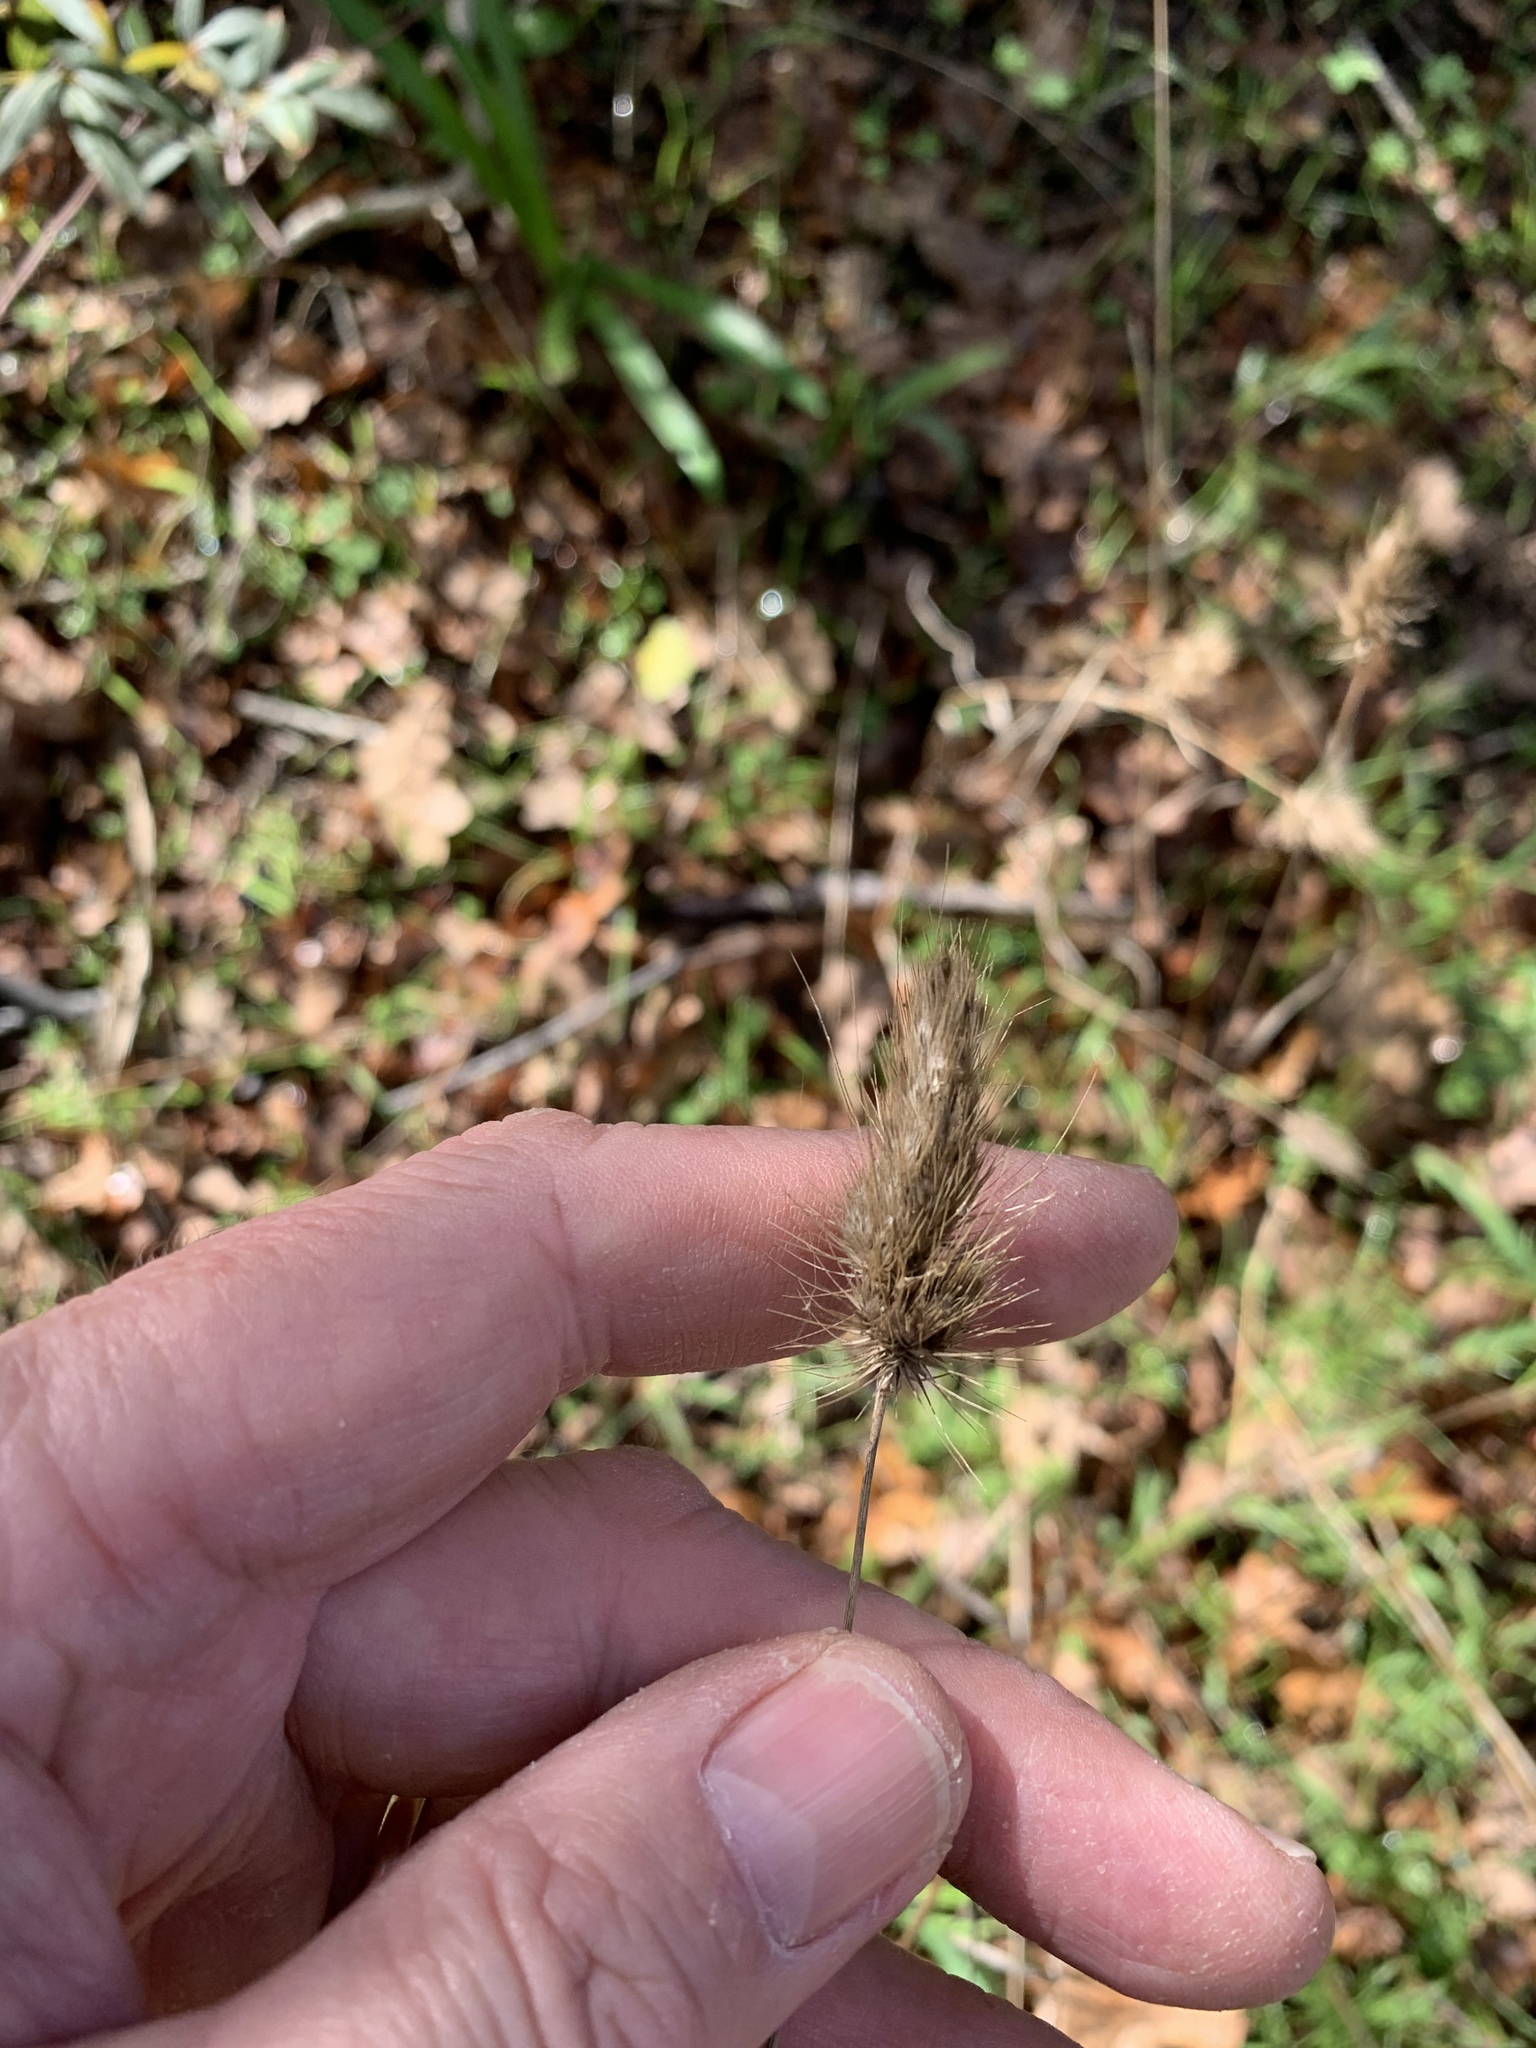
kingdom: Plantae
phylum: Tracheophyta
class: Liliopsida
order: Poales
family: Poaceae
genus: Cynosurus
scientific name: Cynosurus echinatus
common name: Rough dog's-tail
